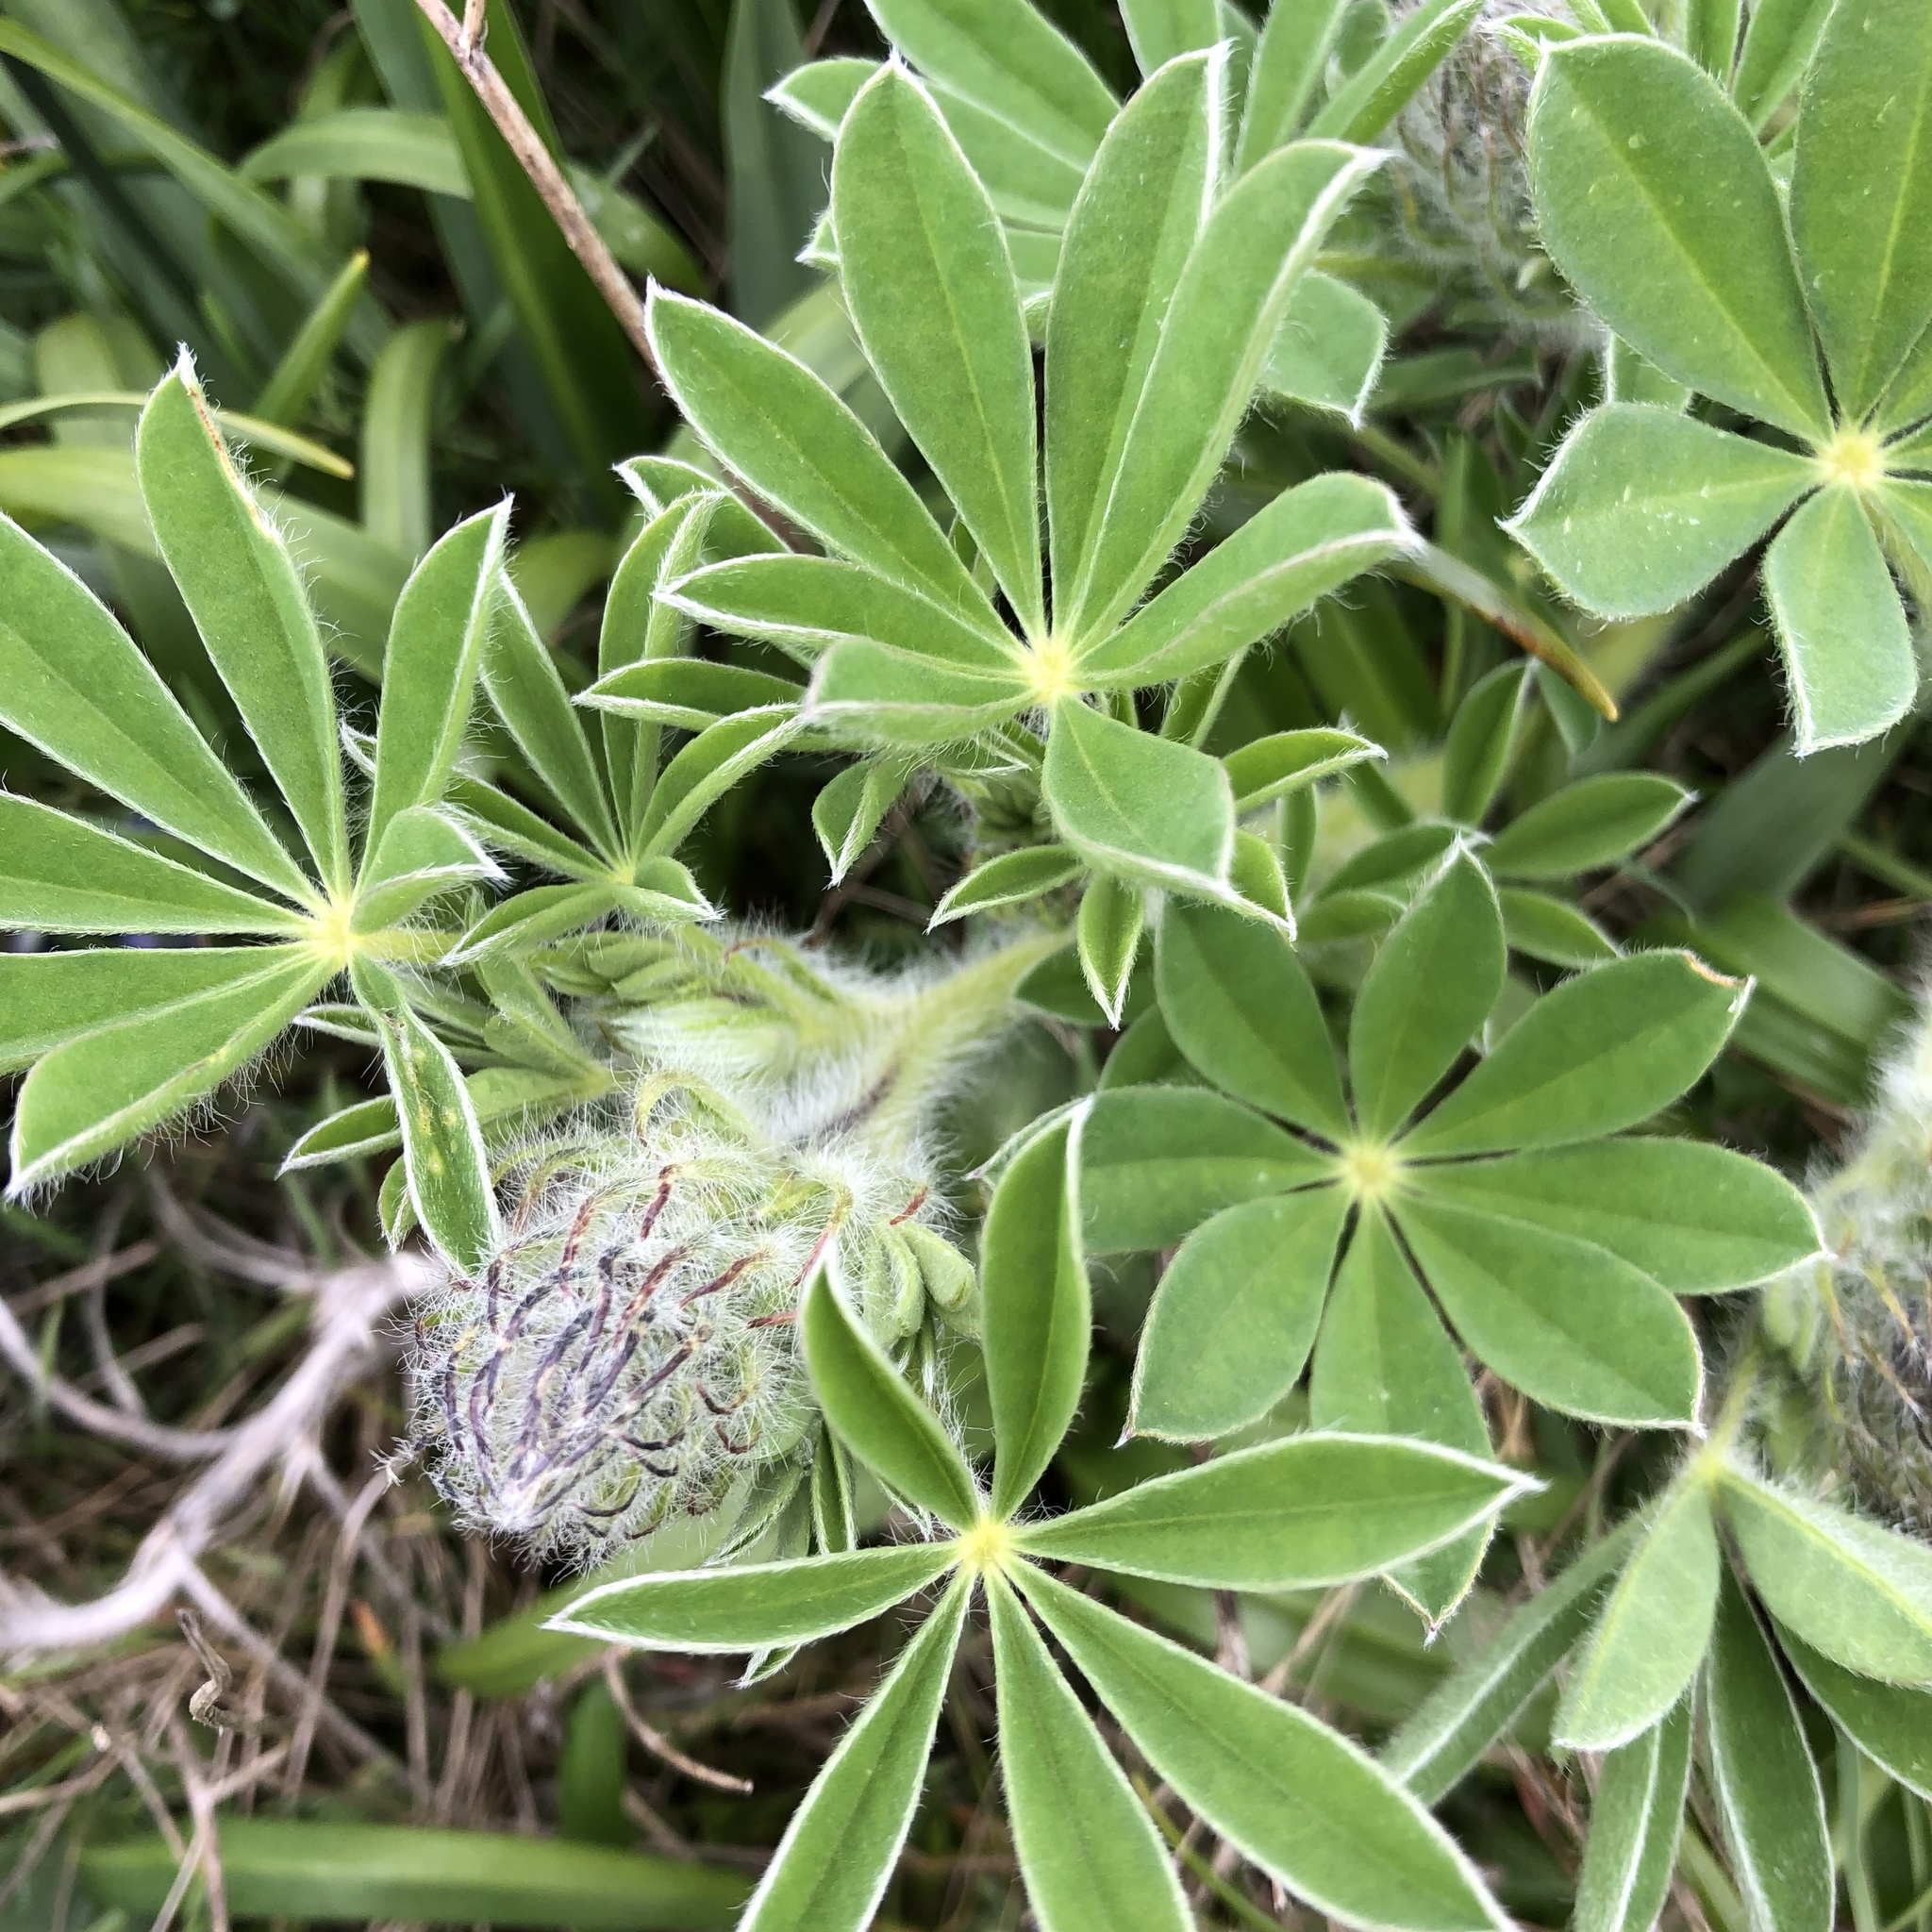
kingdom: Plantae
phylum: Tracheophyta
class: Magnoliopsida
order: Fabales
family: Fabaceae
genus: Lupinus
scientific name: Lupinus littoralis
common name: Seashore lupine
